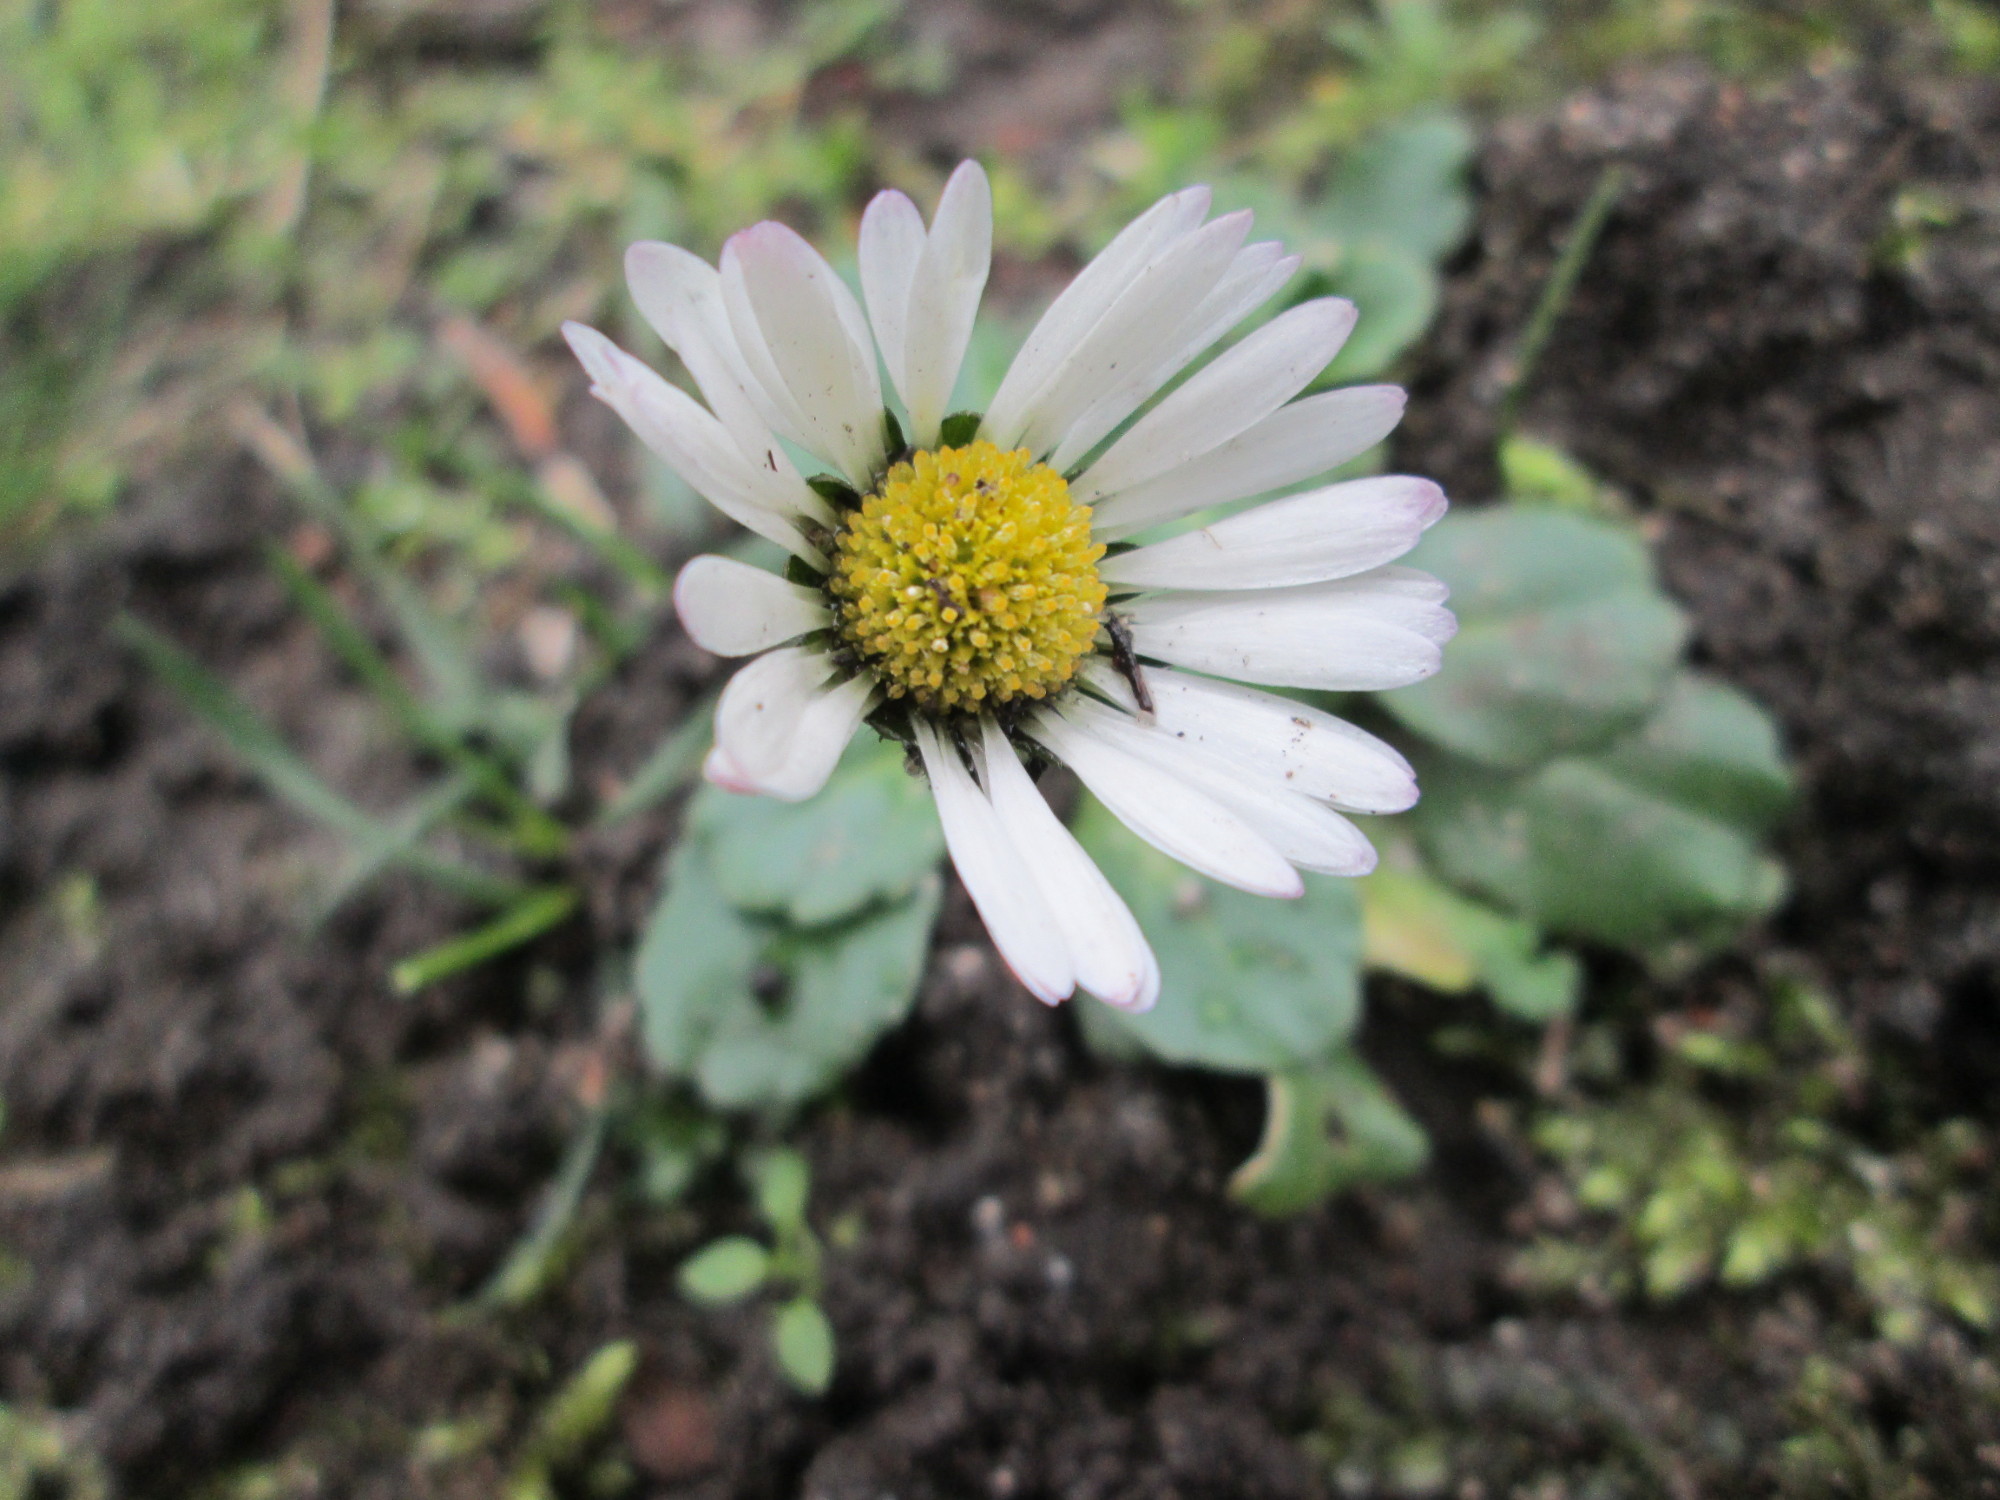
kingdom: Plantae
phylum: Tracheophyta
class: Magnoliopsida
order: Asterales
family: Asteraceae
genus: Bellis
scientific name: Bellis perennis
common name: Lawndaisy
